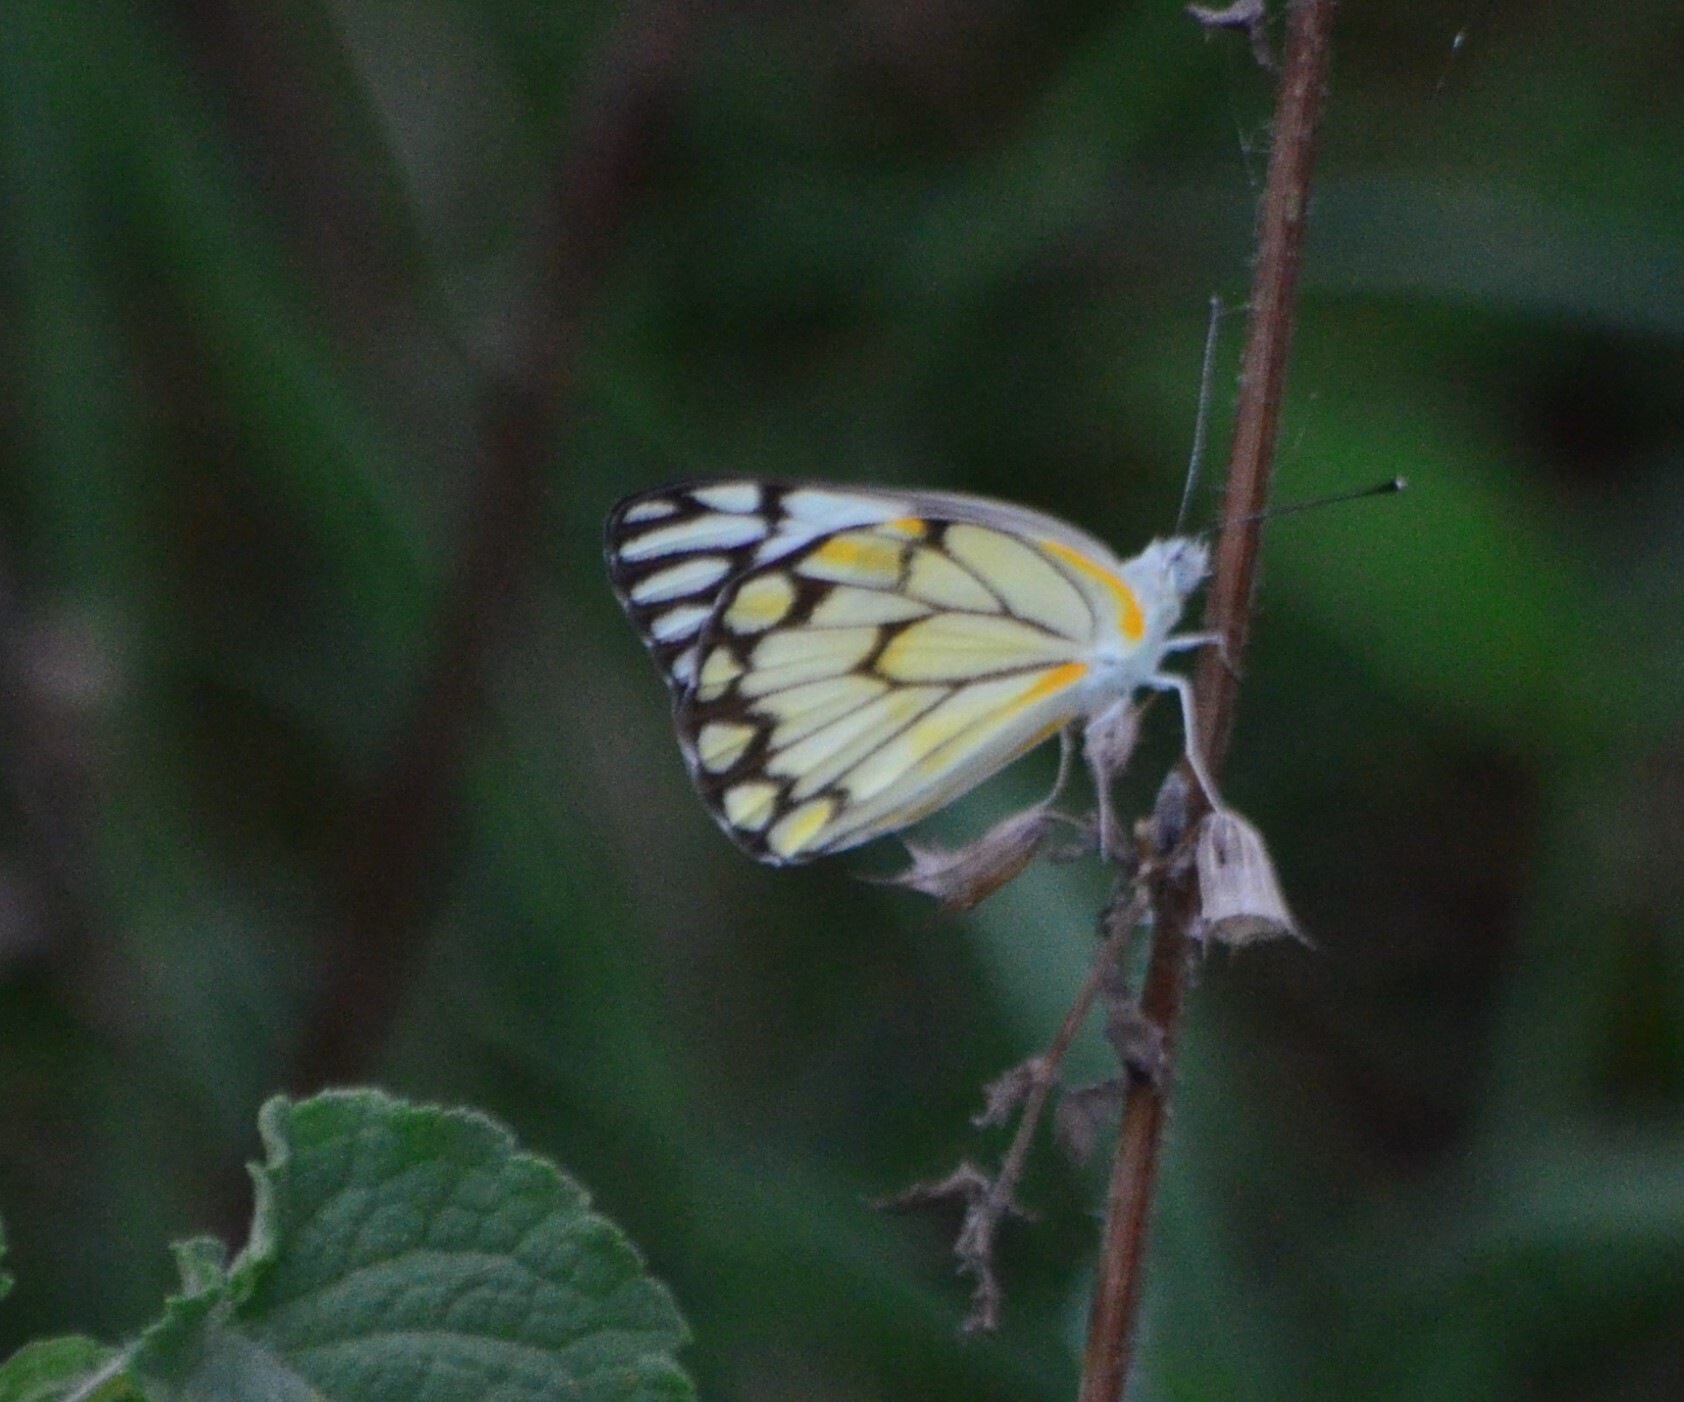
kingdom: Animalia
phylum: Arthropoda
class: Insecta
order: Lepidoptera
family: Pieridae
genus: Belenois
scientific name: Belenois aurota
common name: Brown-veined white
